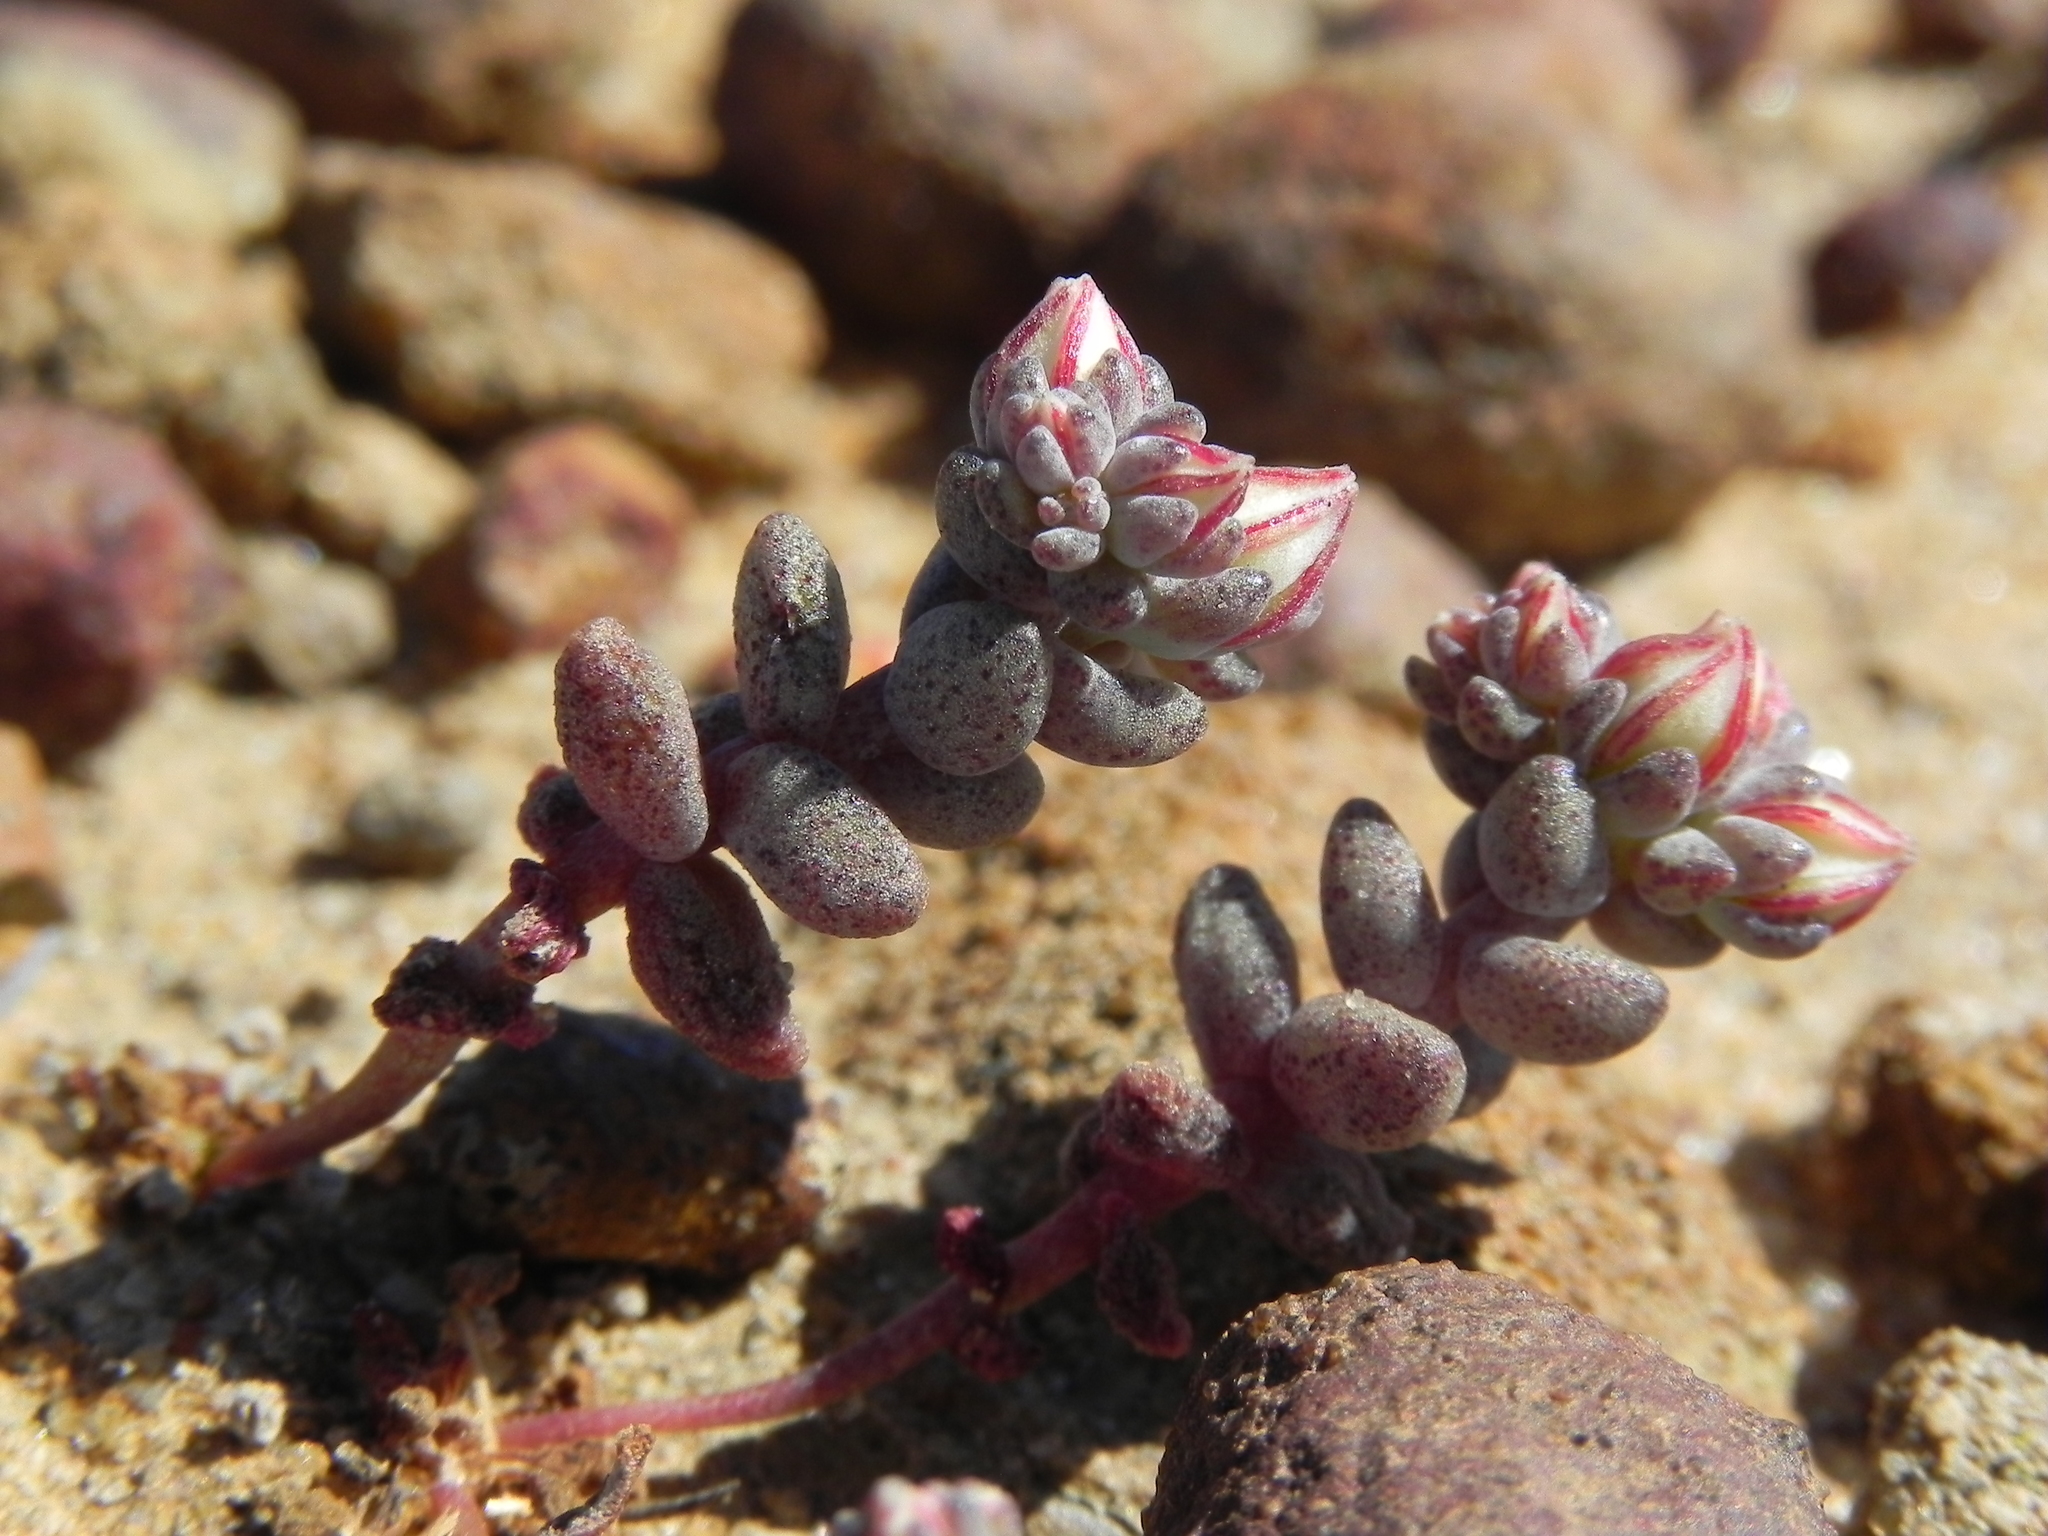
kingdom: Plantae
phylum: Tracheophyta
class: Magnoliopsida
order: Saxifragales
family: Crassulaceae
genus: Dudleya
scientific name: Dudleya blochmaniae
